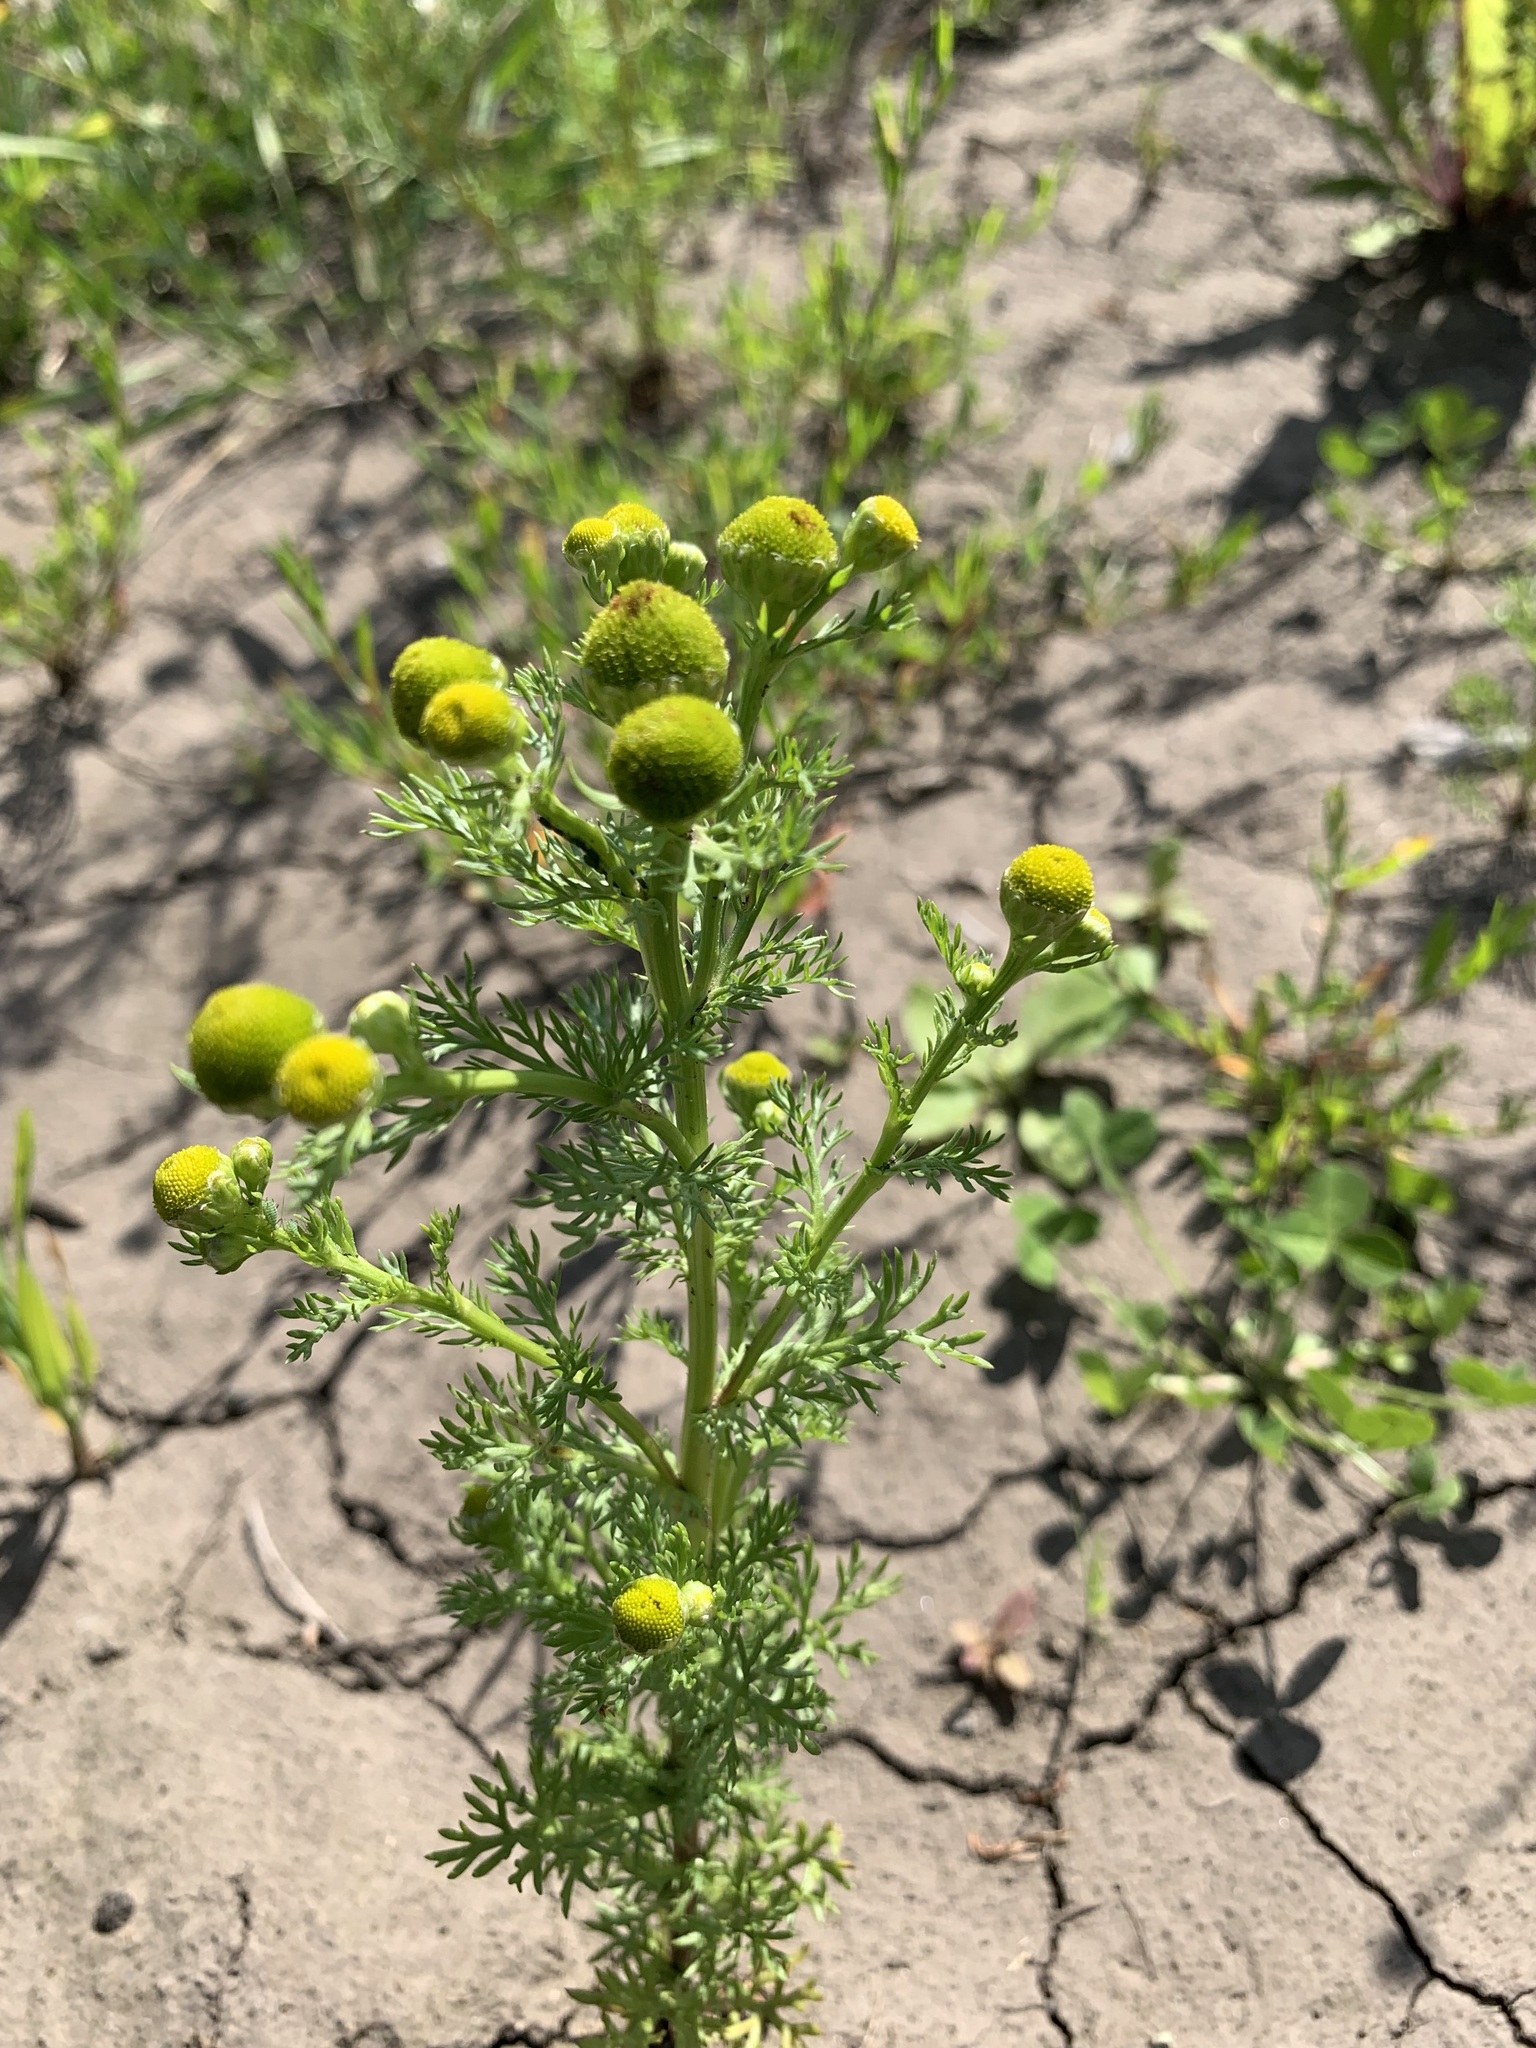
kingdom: Plantae
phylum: Tracheophyta
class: Magnoliopsida
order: Asterales
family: Asteraceae
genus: Matricaria
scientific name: Matricaria discoidea
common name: Disc mayweed
